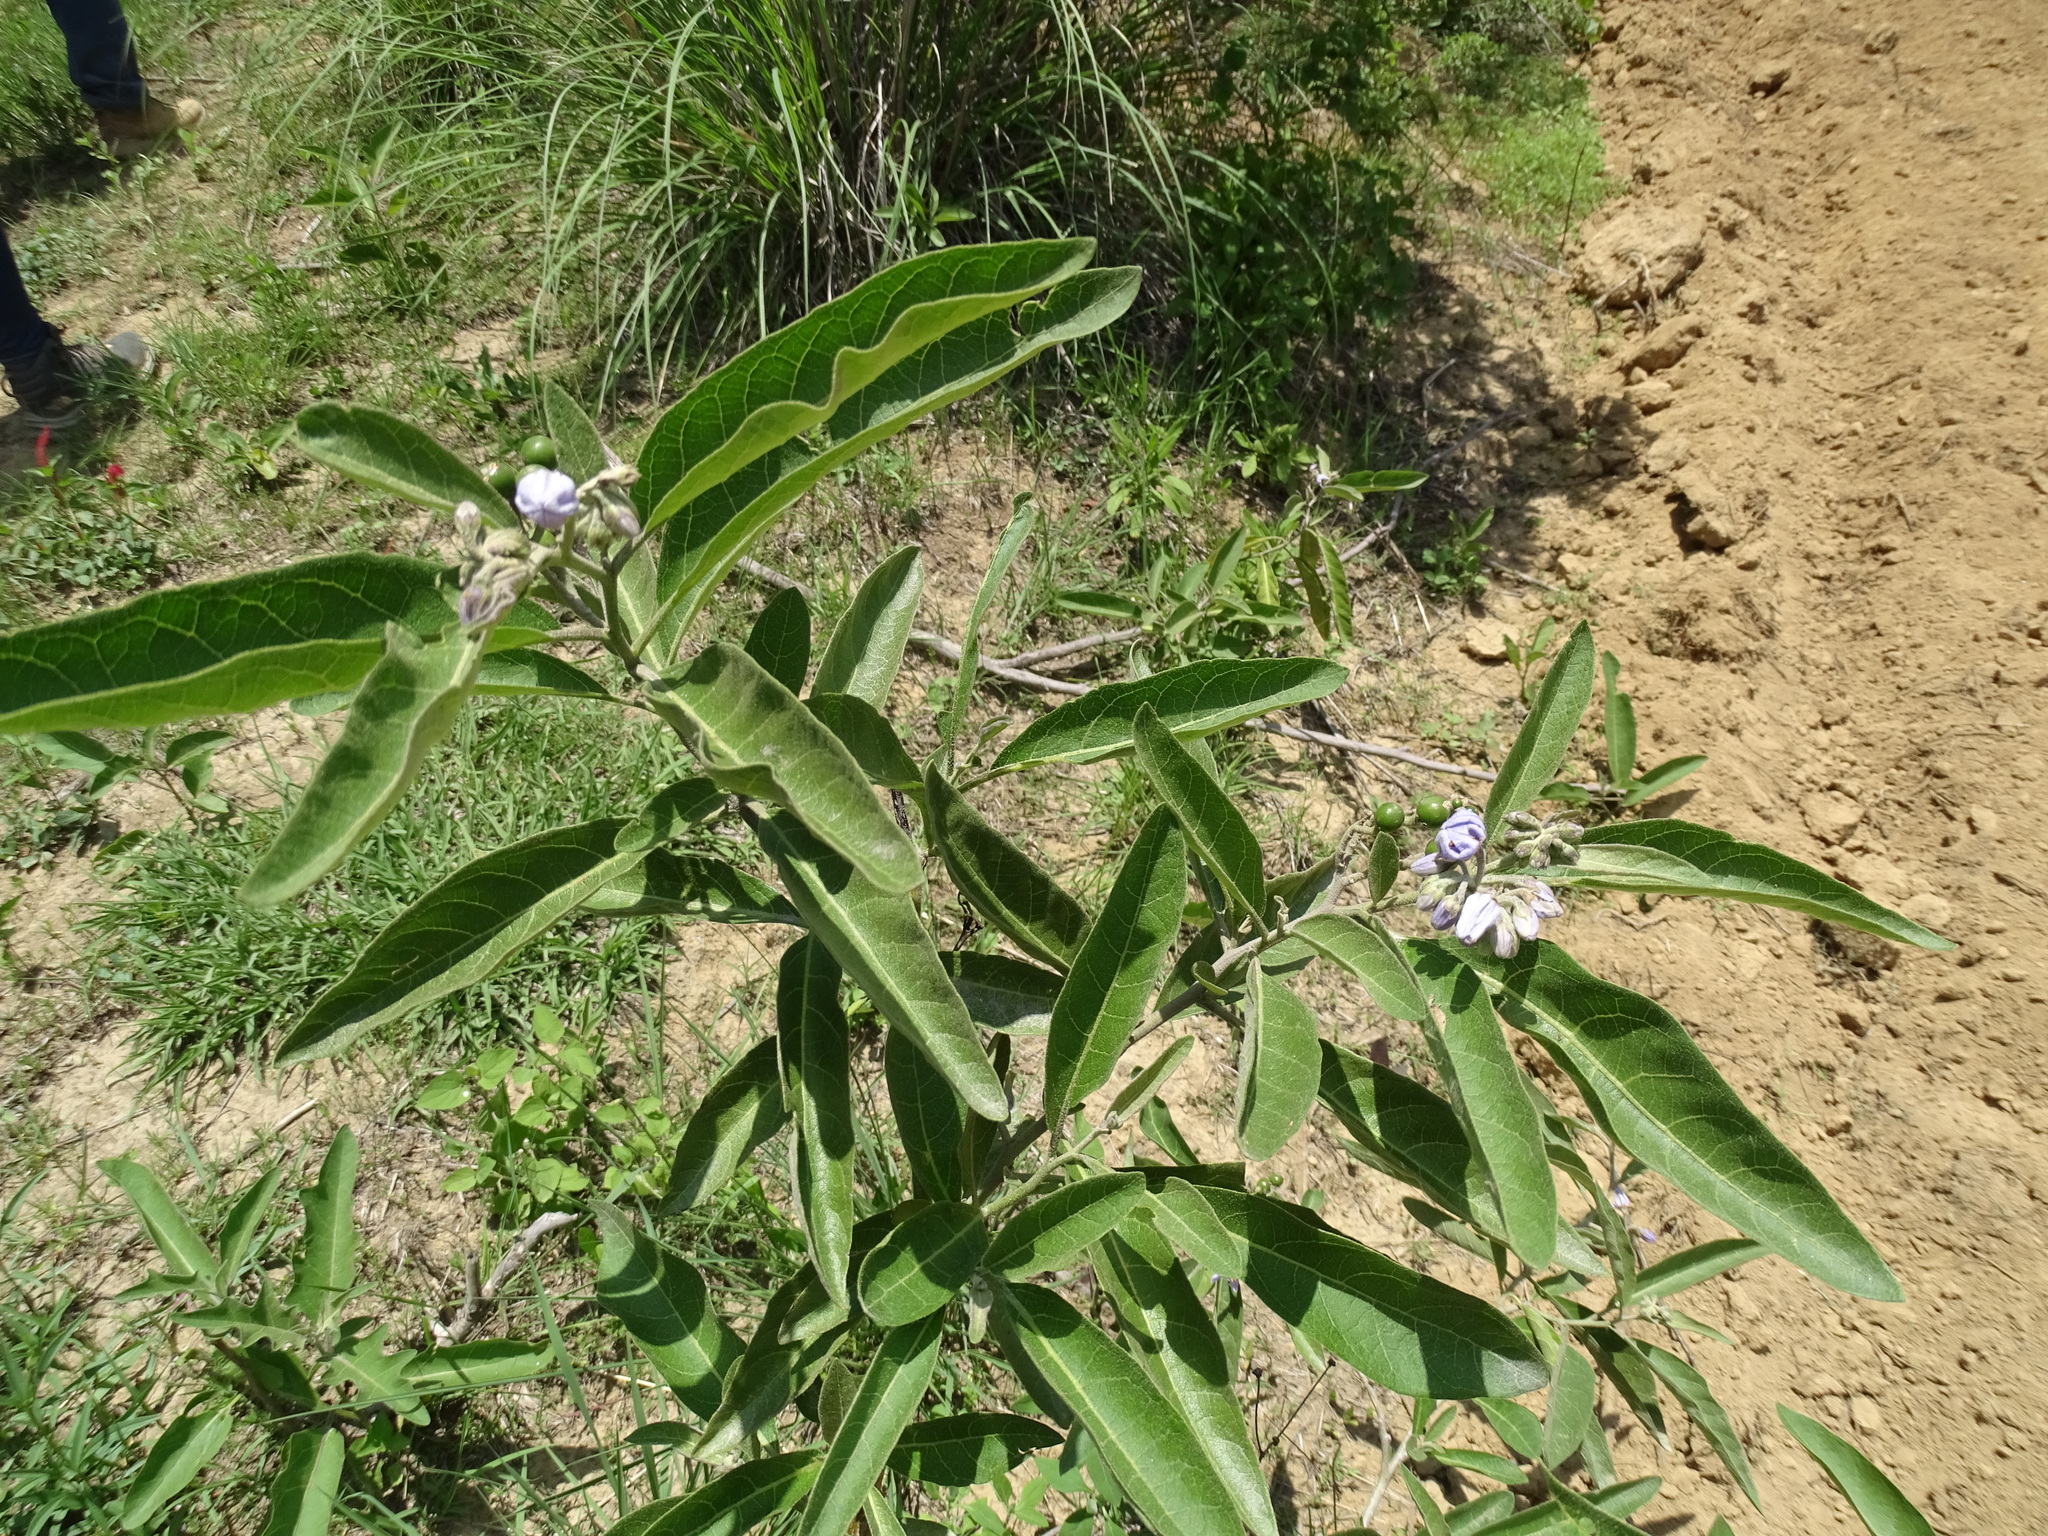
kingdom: Plantae
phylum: Tracheophyta
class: Magnoliopsida
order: Solanales
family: Solanaceae
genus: Solanum
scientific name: Solanum lanceolatum
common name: Orangeberry nightshade
